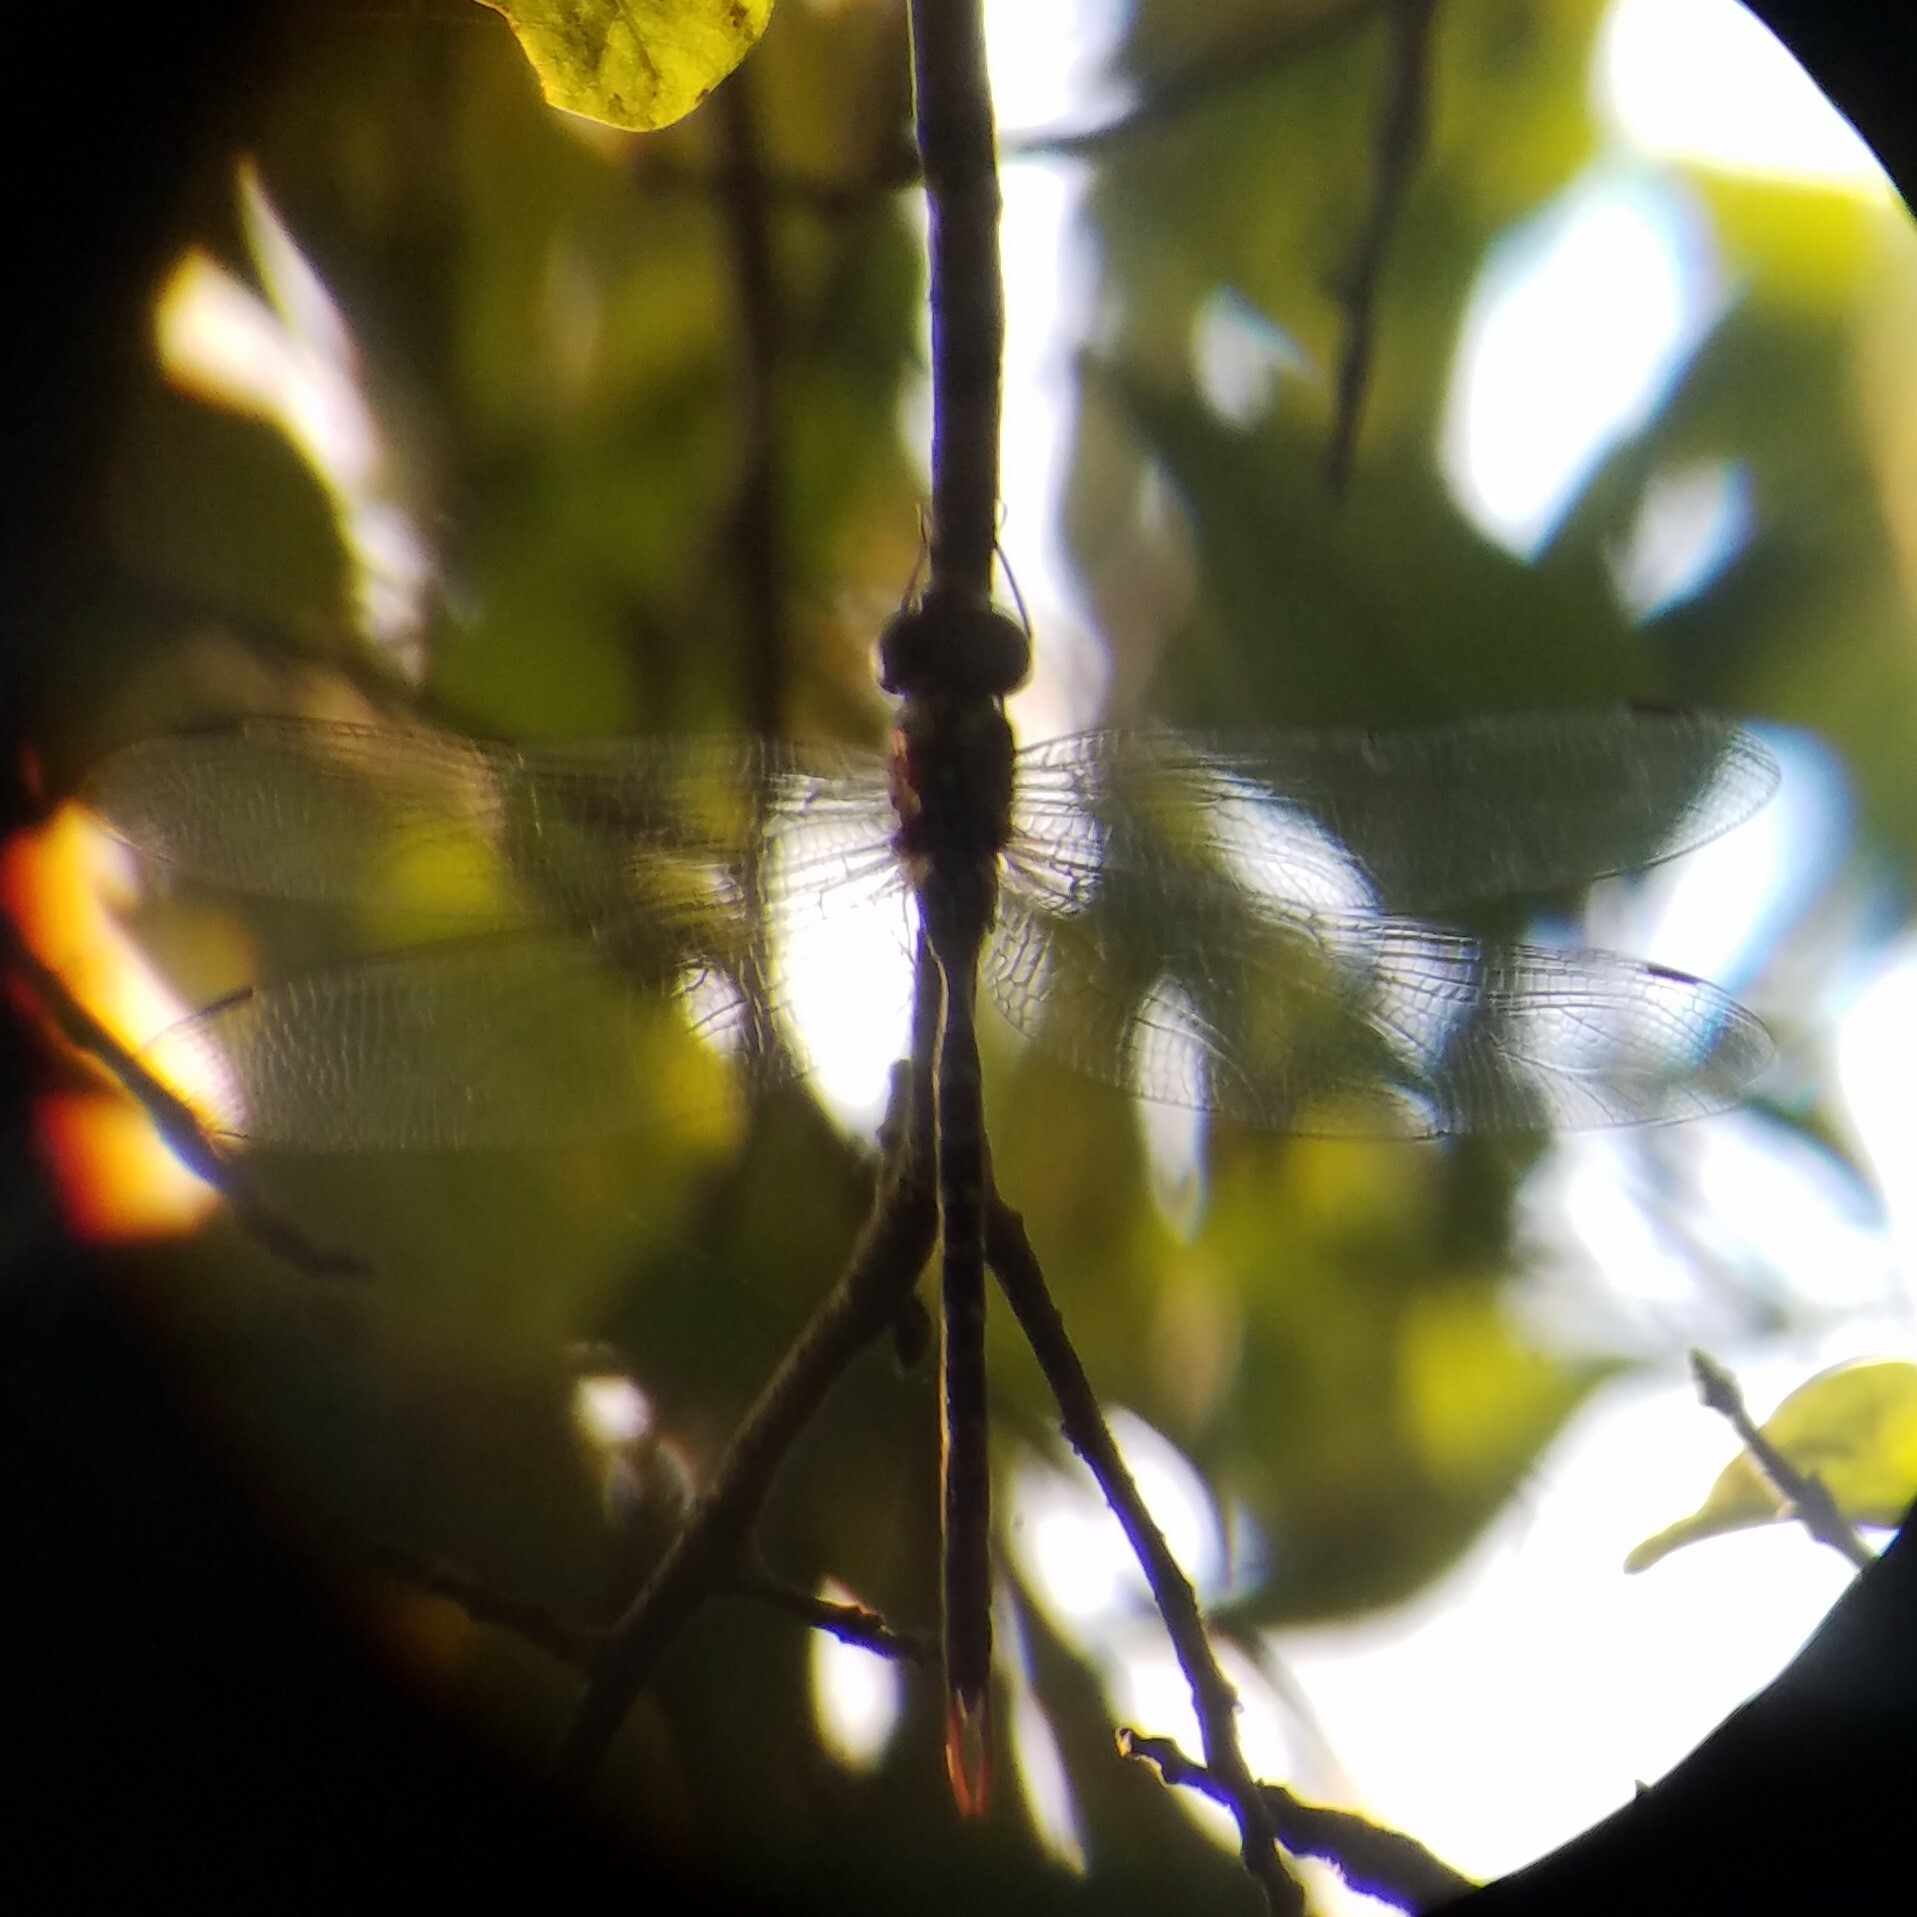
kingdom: Animalia
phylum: Arthropoda
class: Insecta
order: Odonata
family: Aeshnidae
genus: Triacanthagyna
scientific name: Triacanthagyna trifida
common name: Phantom darner
